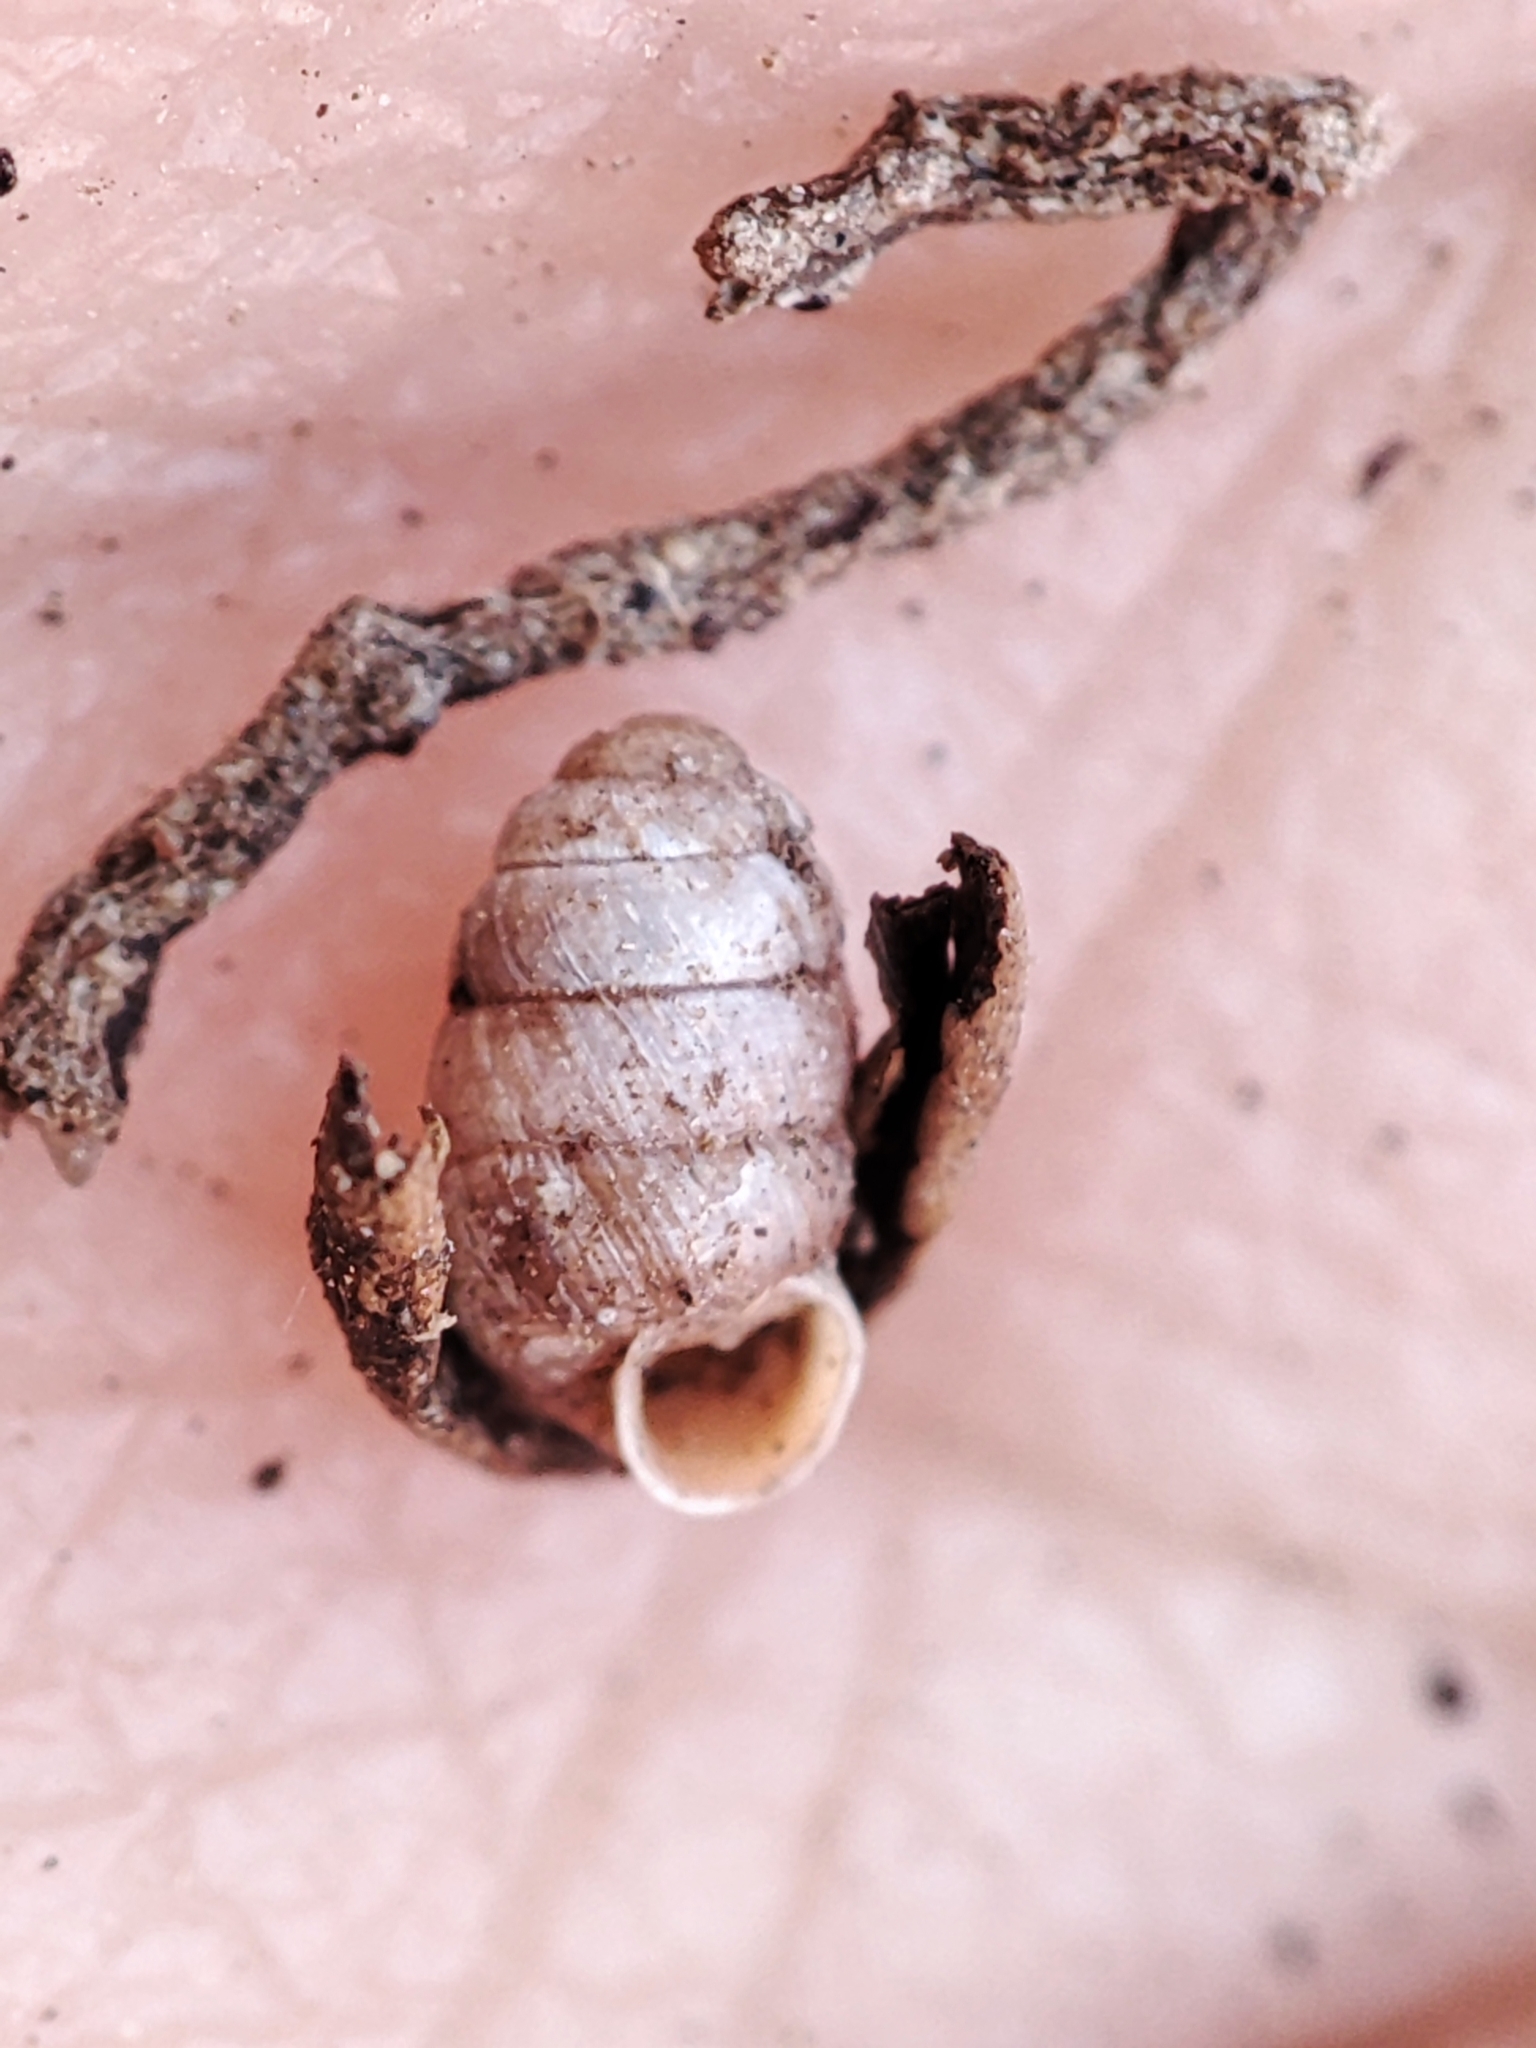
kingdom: Animalia
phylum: Mollusca
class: Gastropoda
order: Stylommatophora
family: Pupillidae
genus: Pupilla
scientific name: Pupilla muscorum
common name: Moss chrysalis snail
